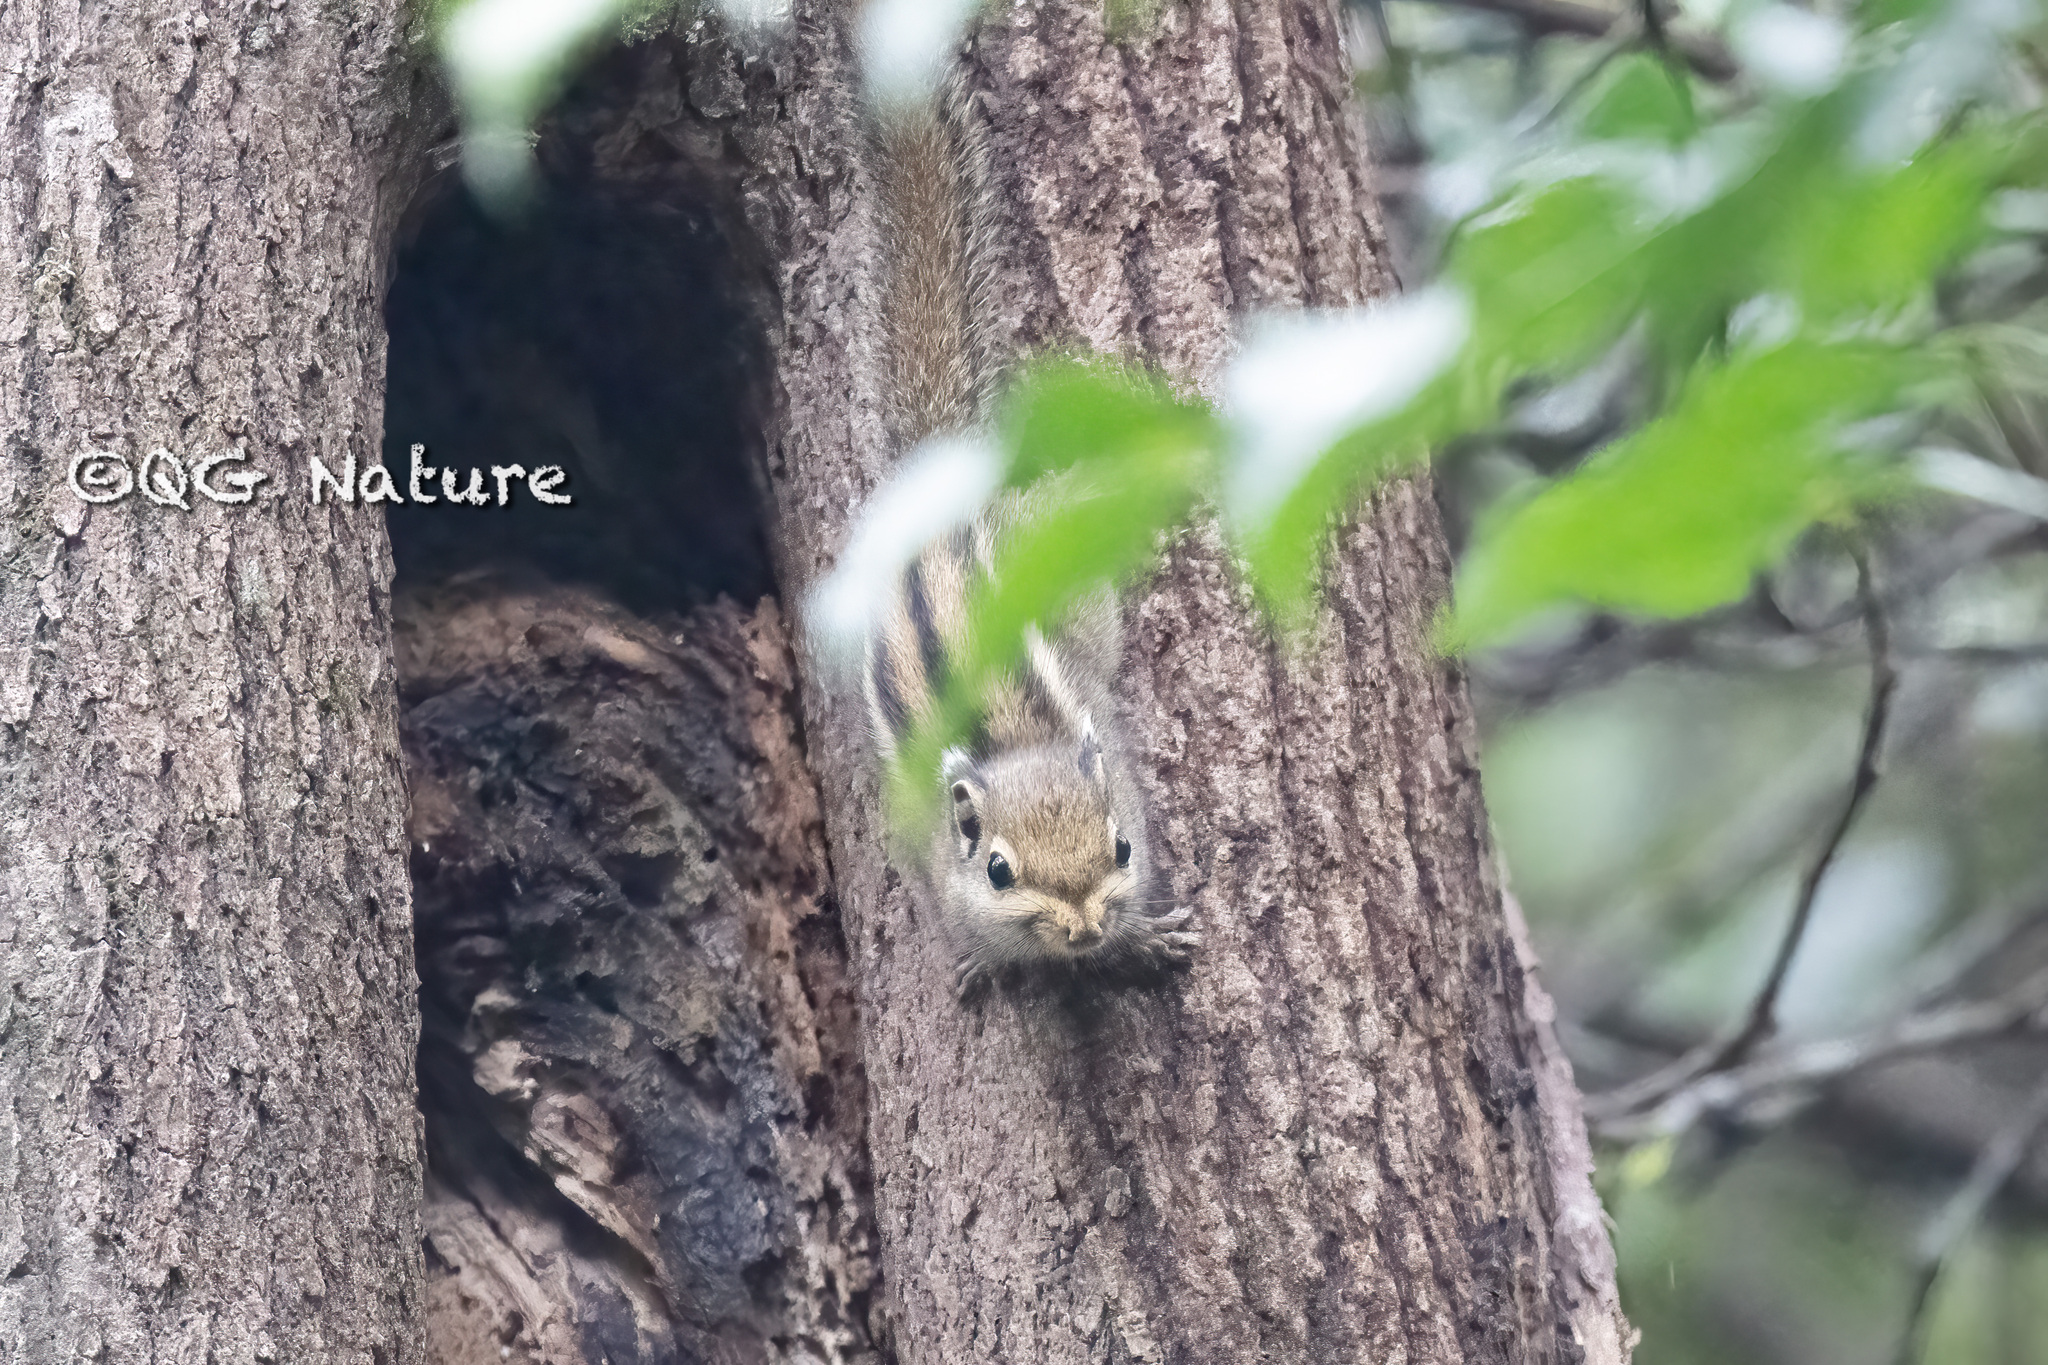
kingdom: Animalia
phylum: Chordata
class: Mammalia
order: Rodentia
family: Sciuridae
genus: Tamiops
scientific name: Tamiops maritimus
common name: Maritime striped squirrel
